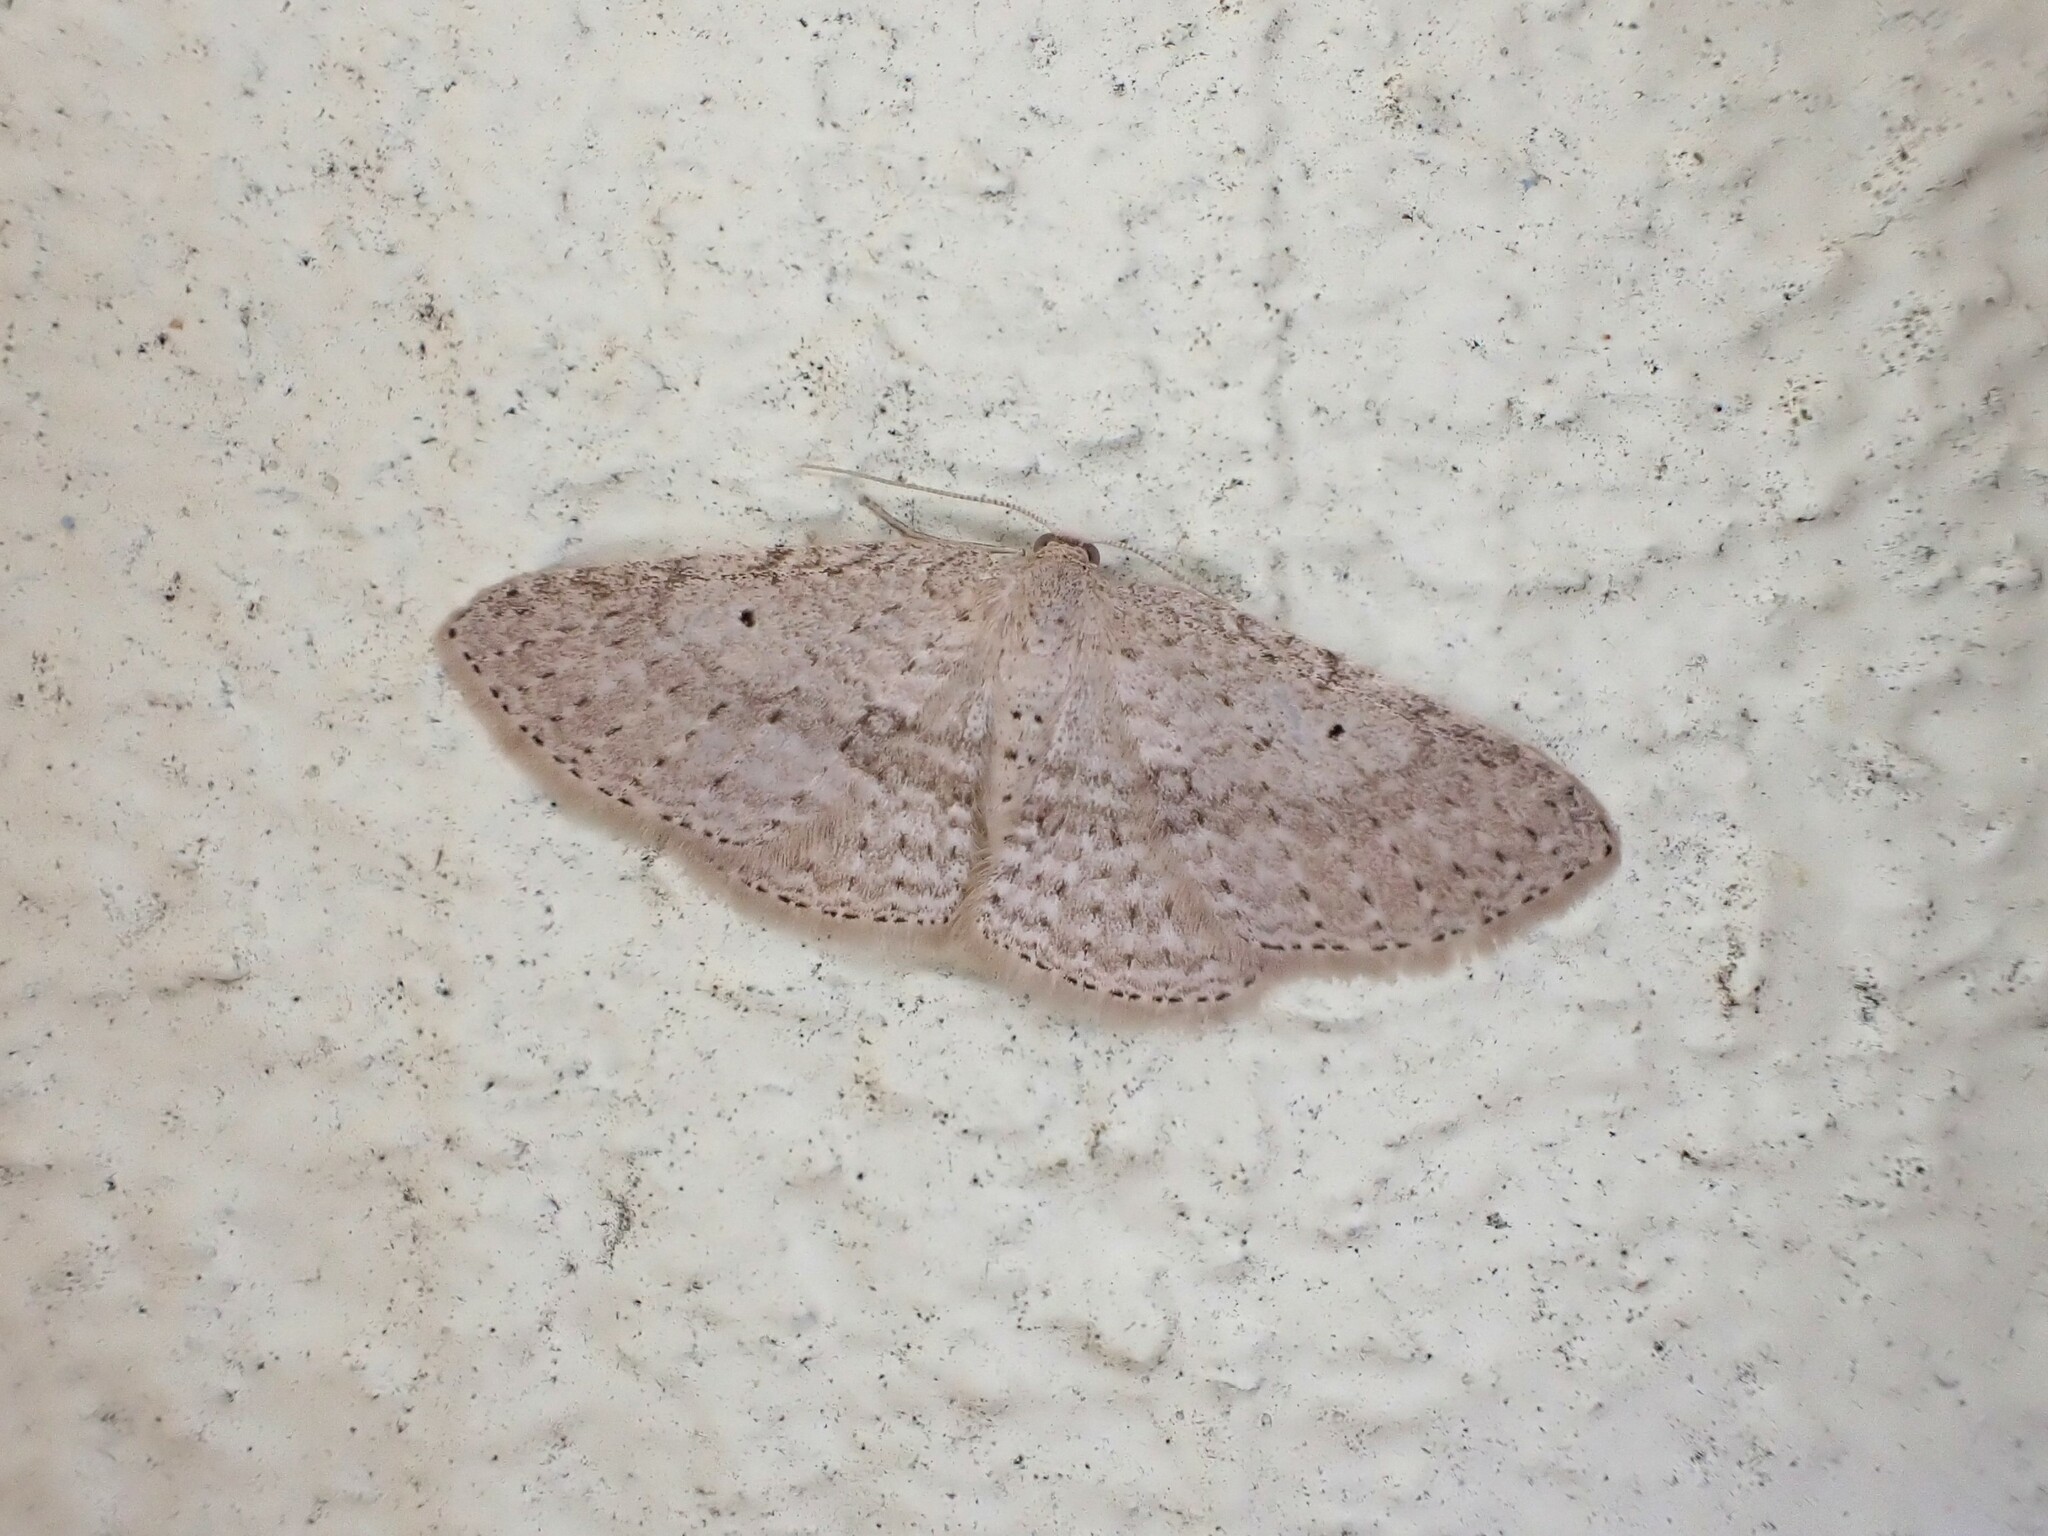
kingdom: Animalia
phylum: Arthropoda
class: Insecta
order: Lepidoptera
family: Geometridae
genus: Poecilasthena
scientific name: Poecilasthena schistaria
